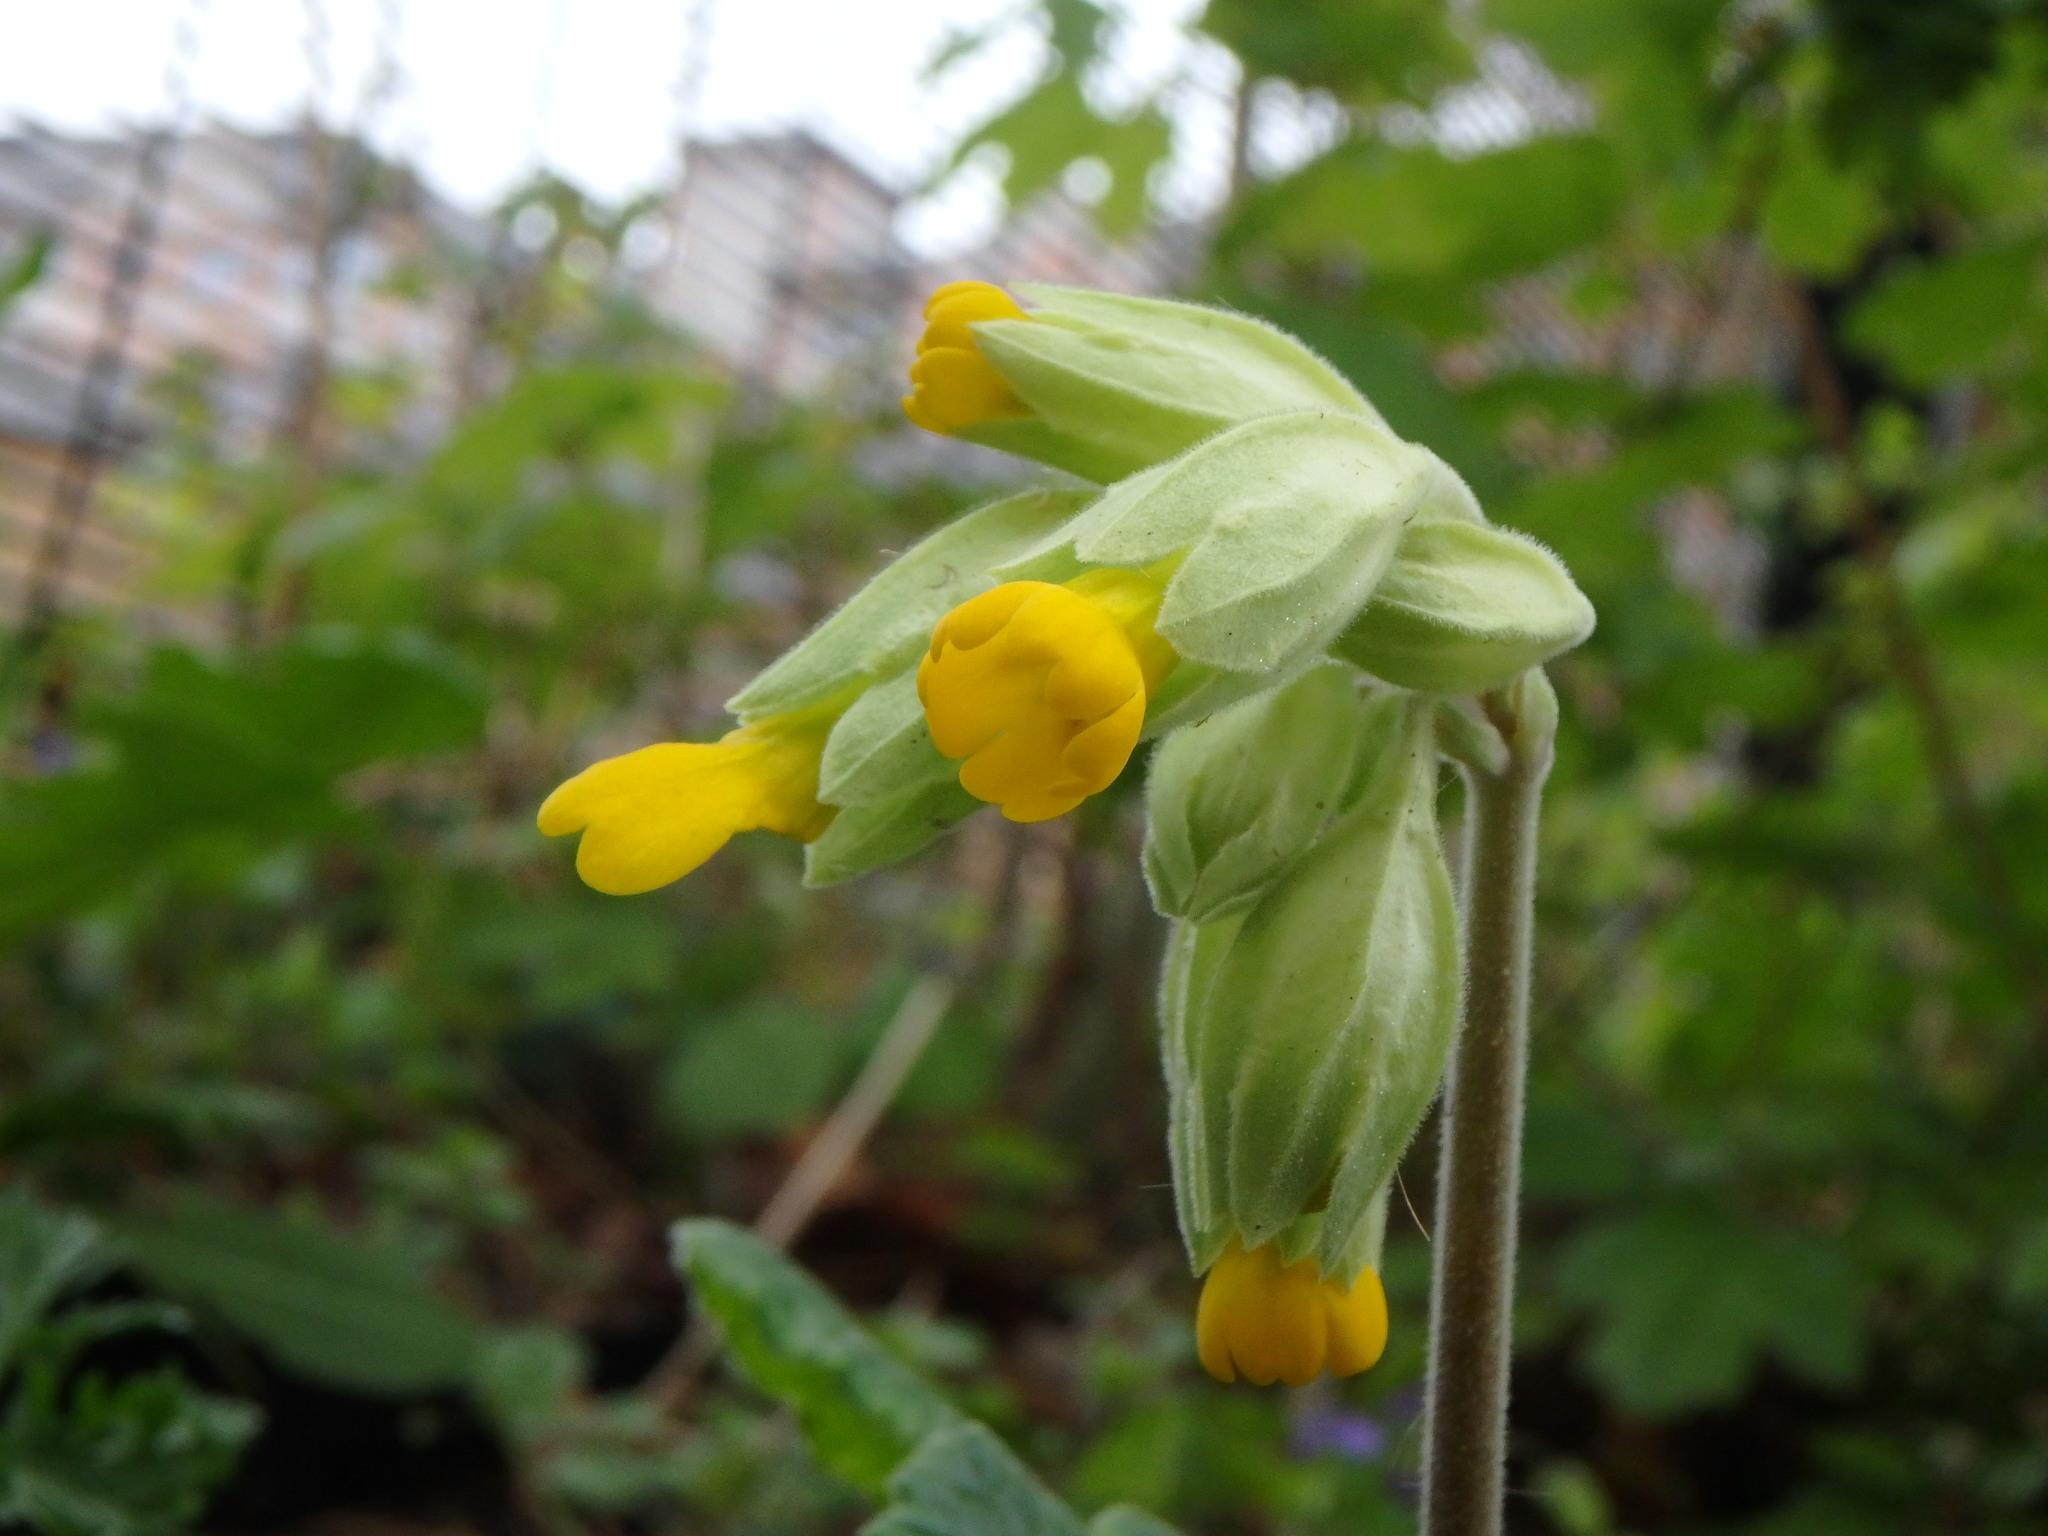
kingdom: Plantae
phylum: Tracheophyta
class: Magnoliopsida
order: Ericales
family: Primulaceae
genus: Primula
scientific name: Primula veris
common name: Cowslip
